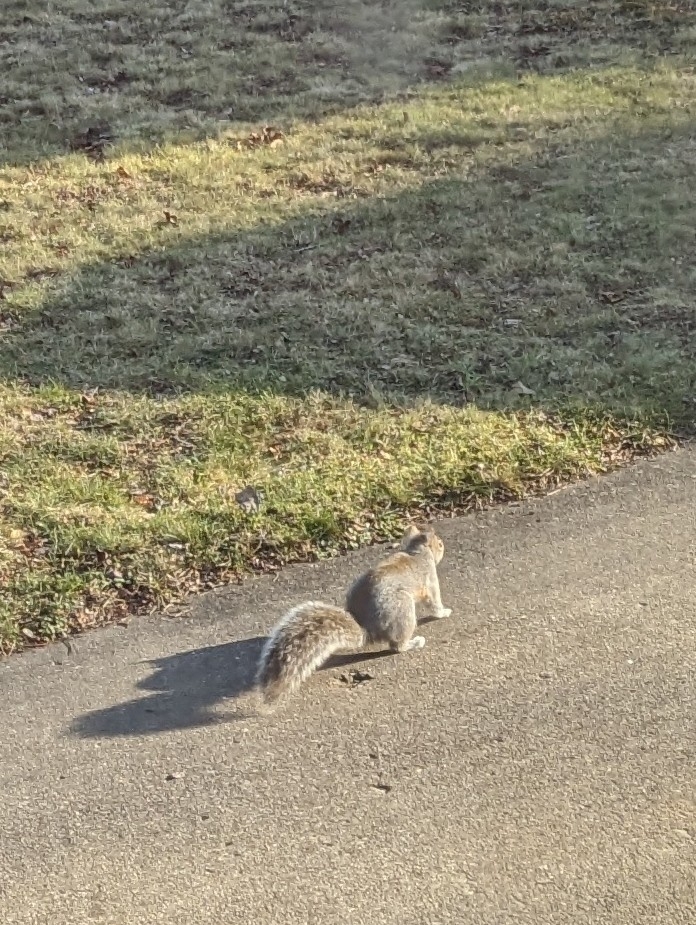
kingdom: Animalia
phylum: Chordata
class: Mammalia
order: Rodentia
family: Sciuridae
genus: Sciurus
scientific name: Sciurus carolinensis
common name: Eastern gray squirrel
